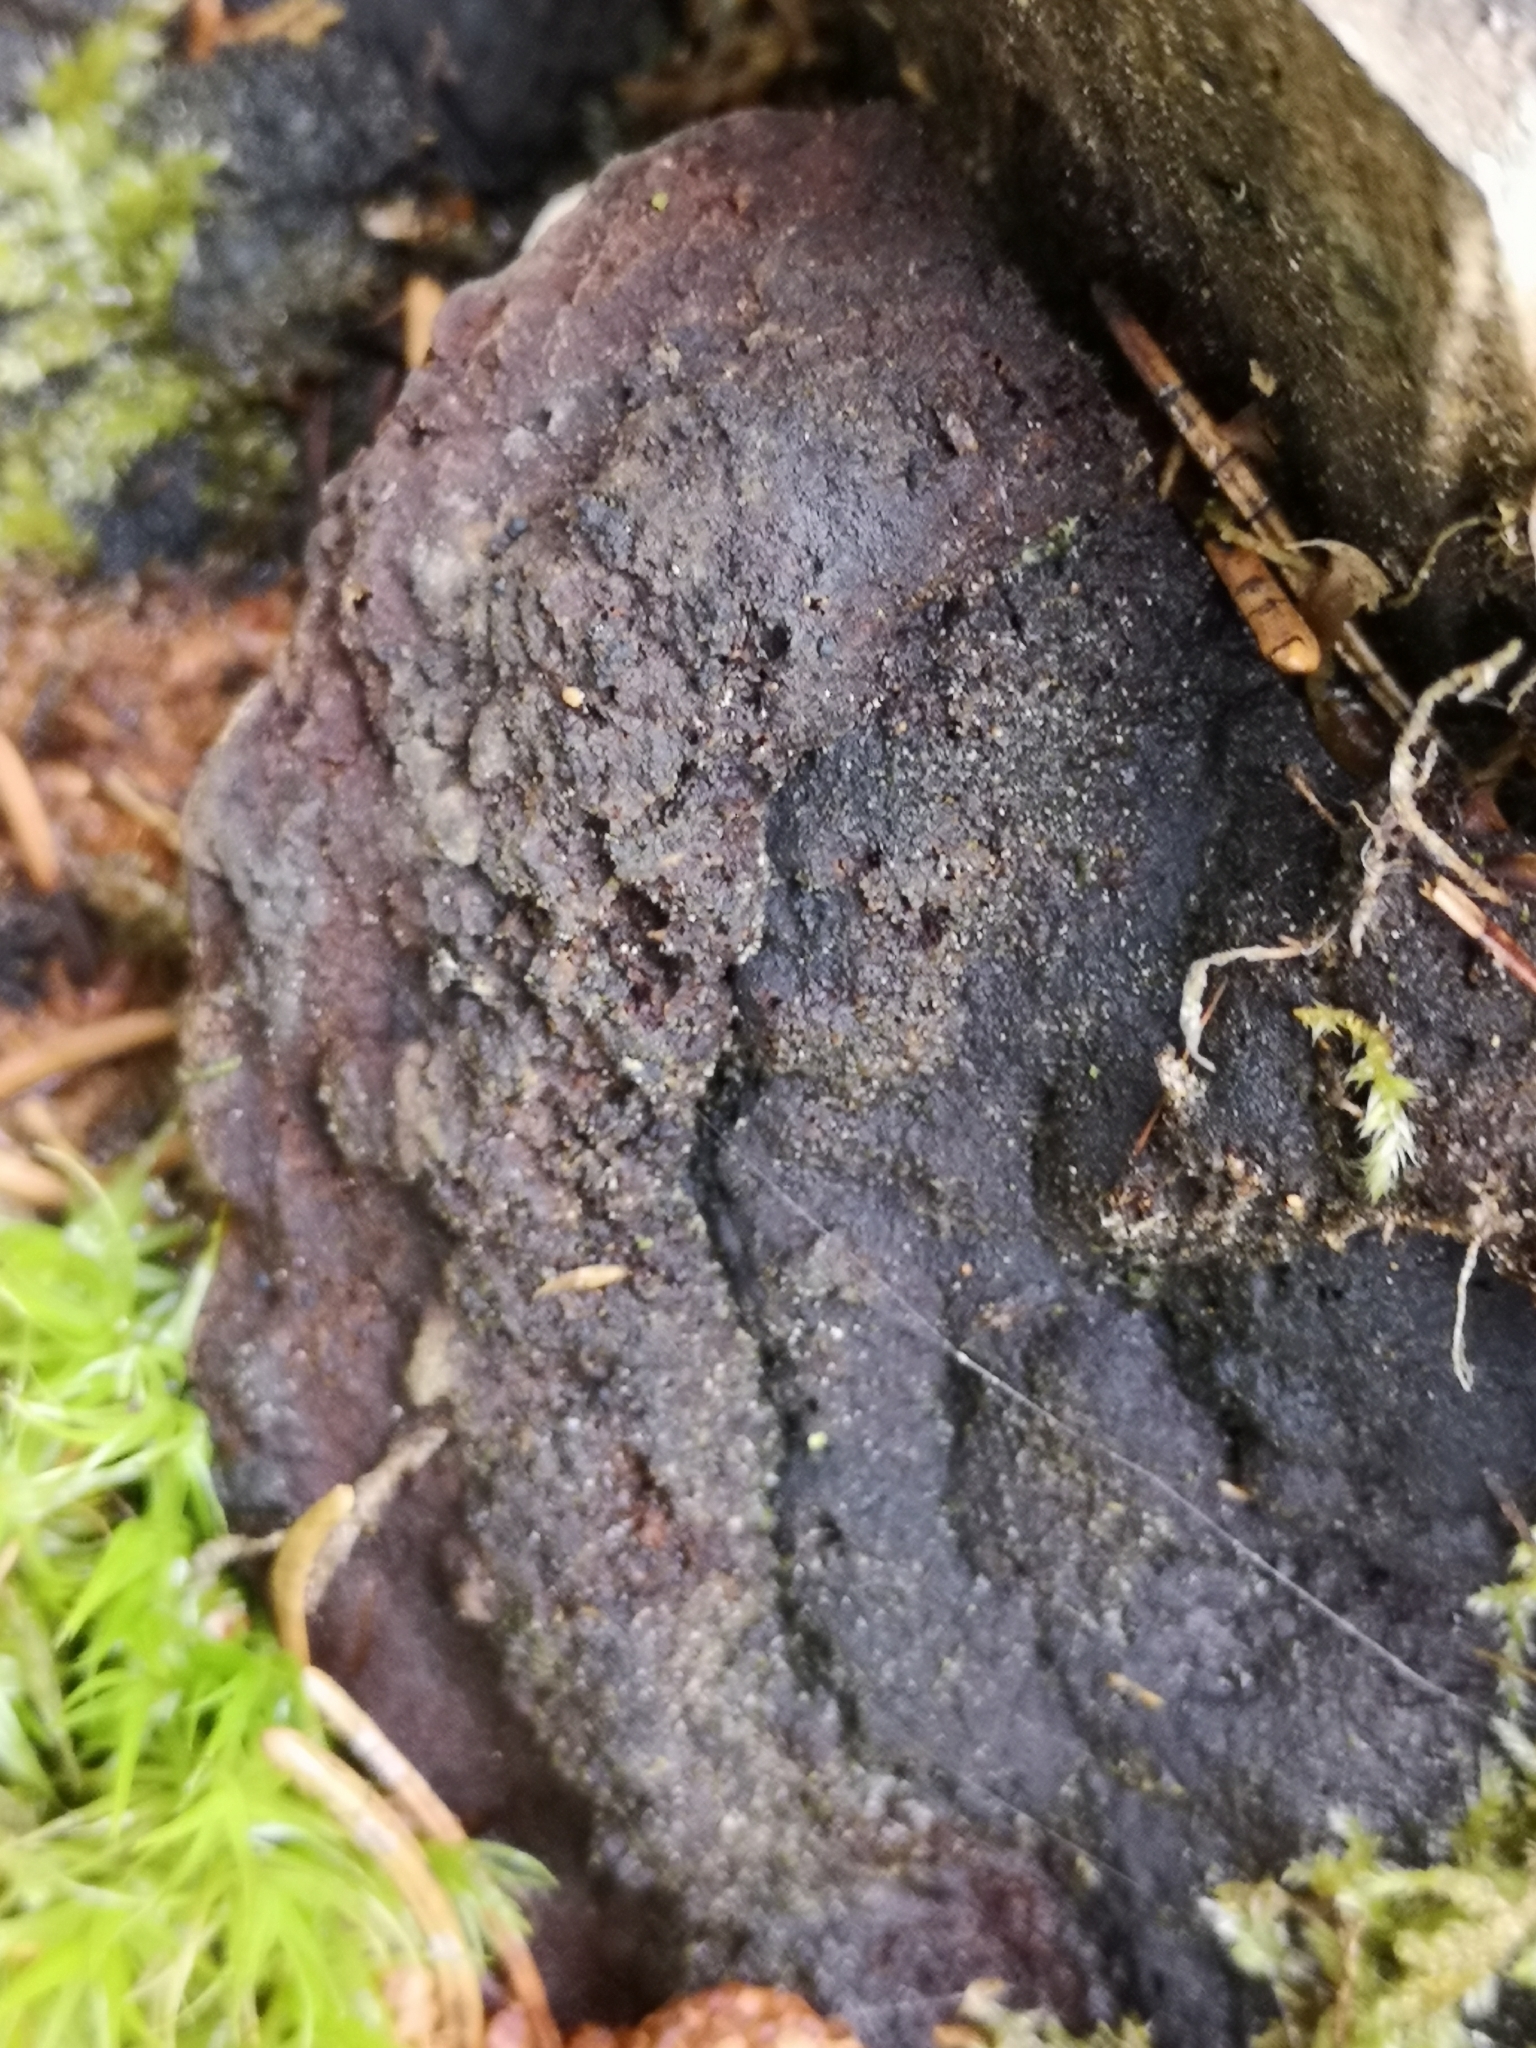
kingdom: Fungi
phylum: Basidiomycota
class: Agaricomycetes
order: Gloeophyllales
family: Gloeophyllaceae
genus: Gloeophyllum
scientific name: Gloeophyllum odoratum
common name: Anise mazegill
